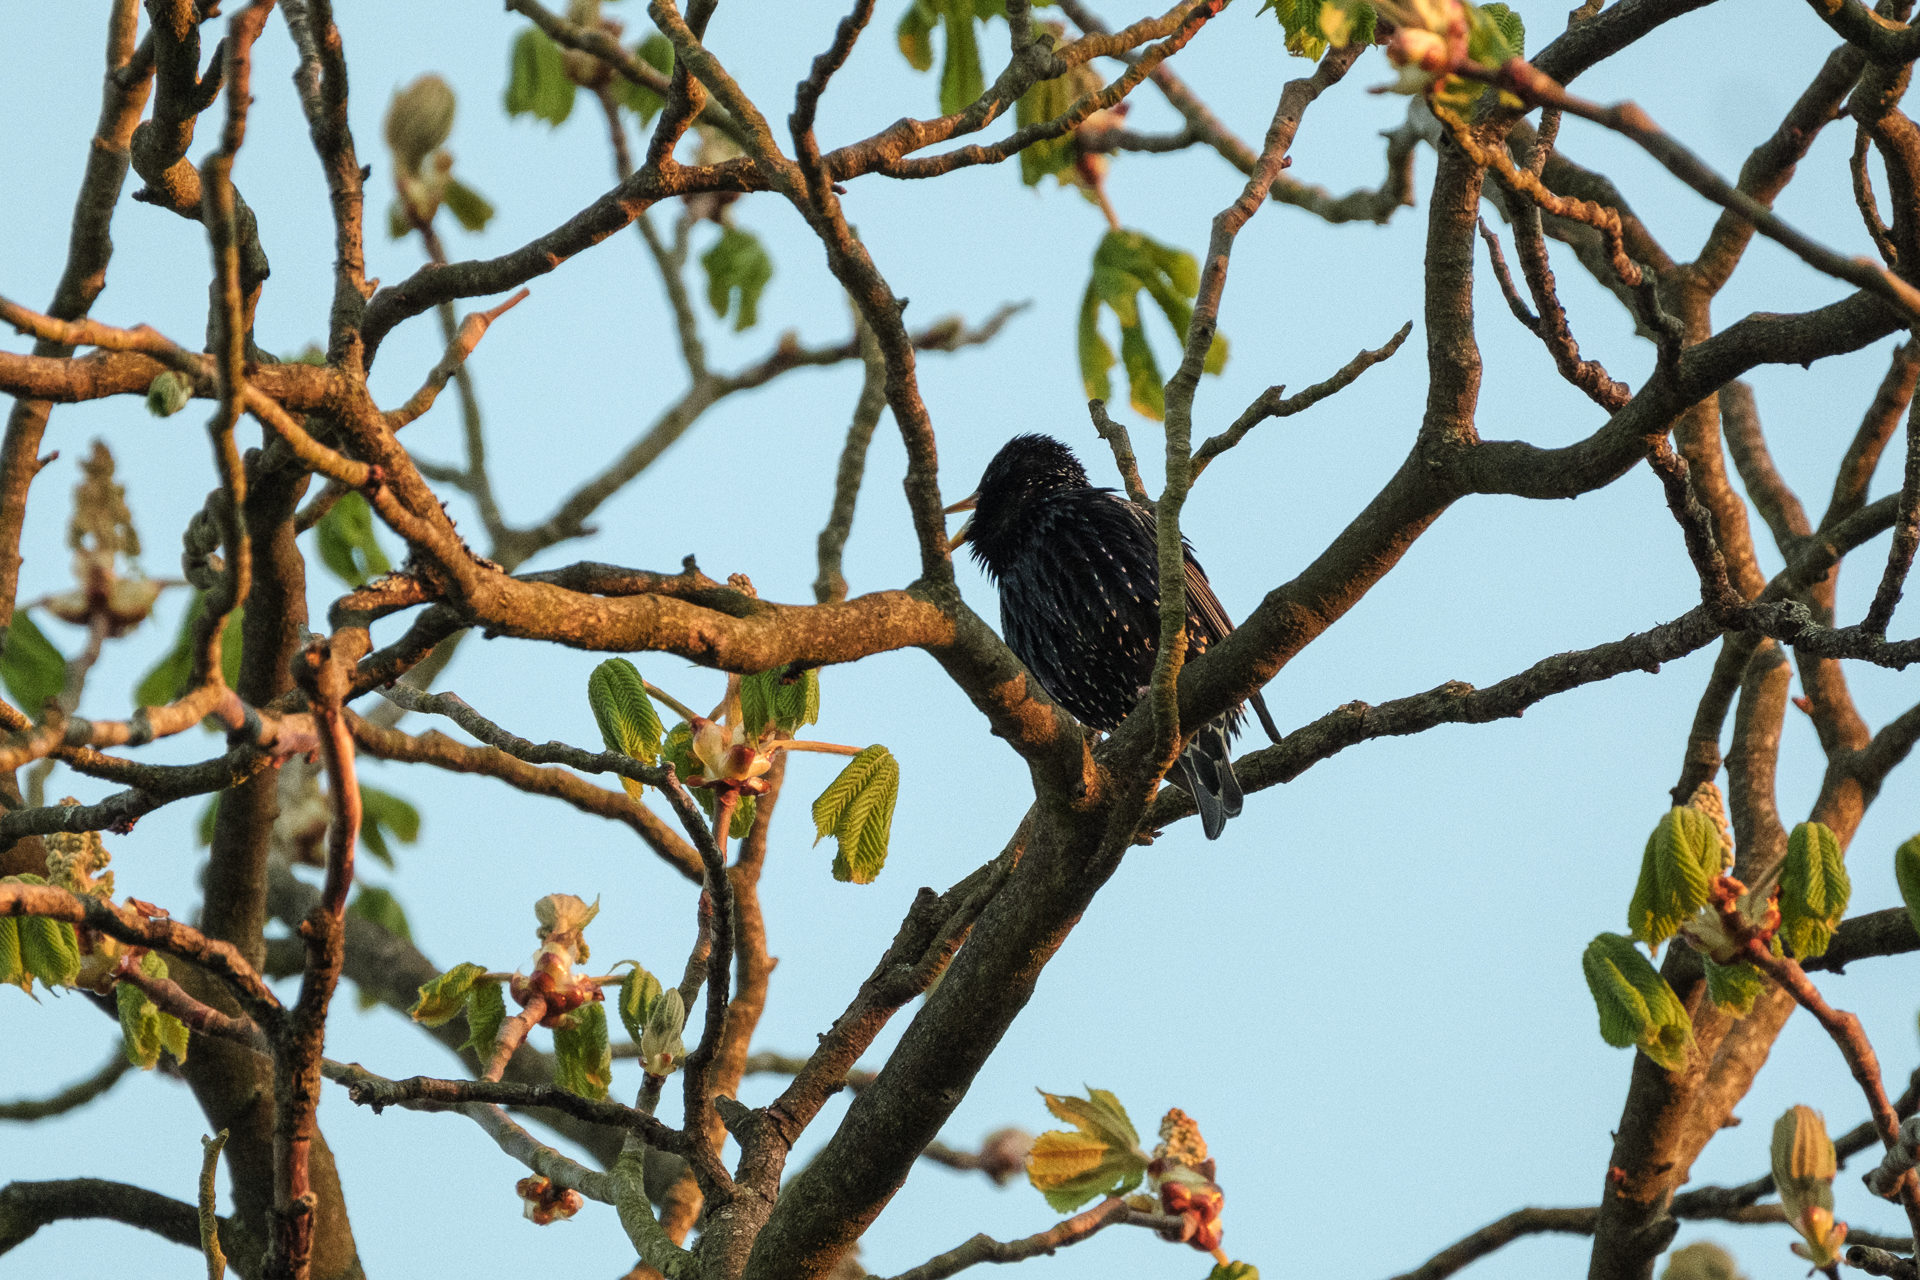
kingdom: Animalia
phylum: Chordata
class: Aves
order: Passeriformes
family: Sturnidae
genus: Sturnus
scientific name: Sturnus vulgaris
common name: Common starling
